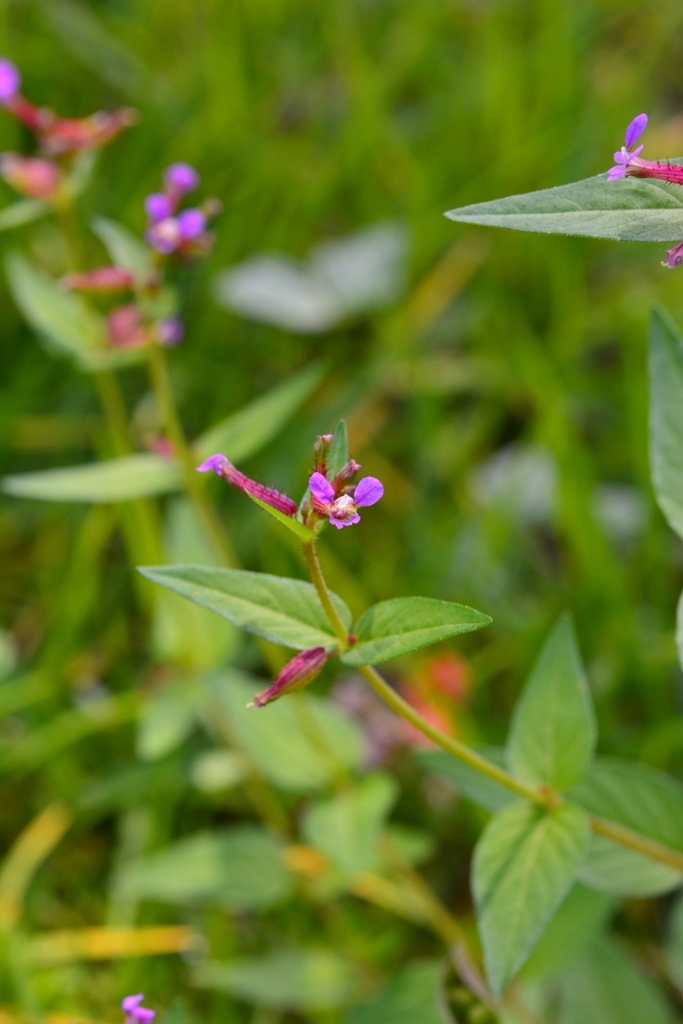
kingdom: Plantae
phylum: Tracheophyta
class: Magnoliopsida
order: Myrtales
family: Lythraceae
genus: Cuphea
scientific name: Cuphea wrightii
